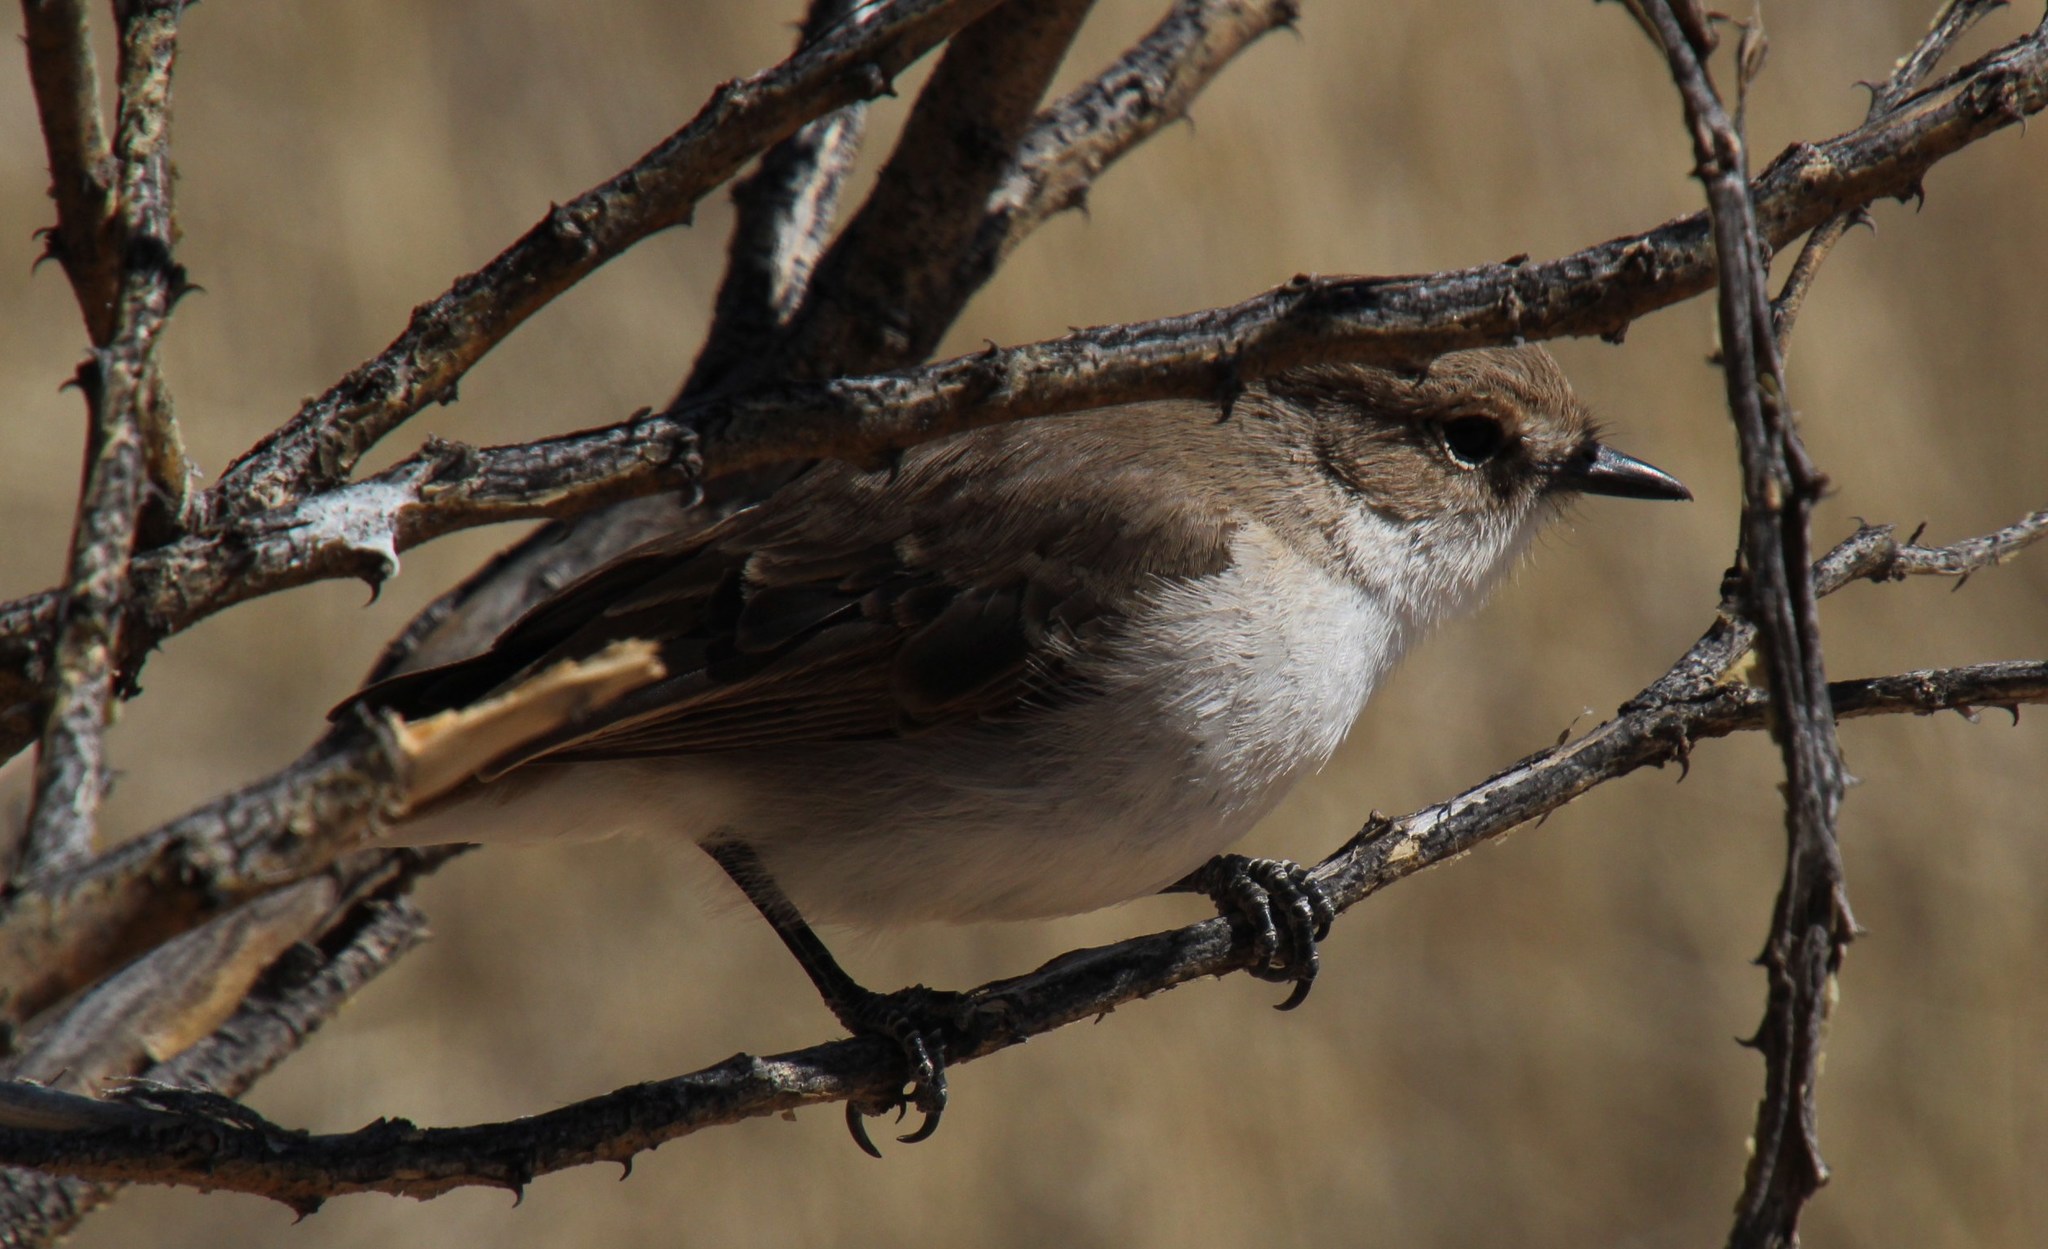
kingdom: Animalia
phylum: Chordata
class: Aves
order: Passeriformes
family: Muscicapidae
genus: Bradornis
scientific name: Bradornis mariquensis
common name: Marico flycatcher
